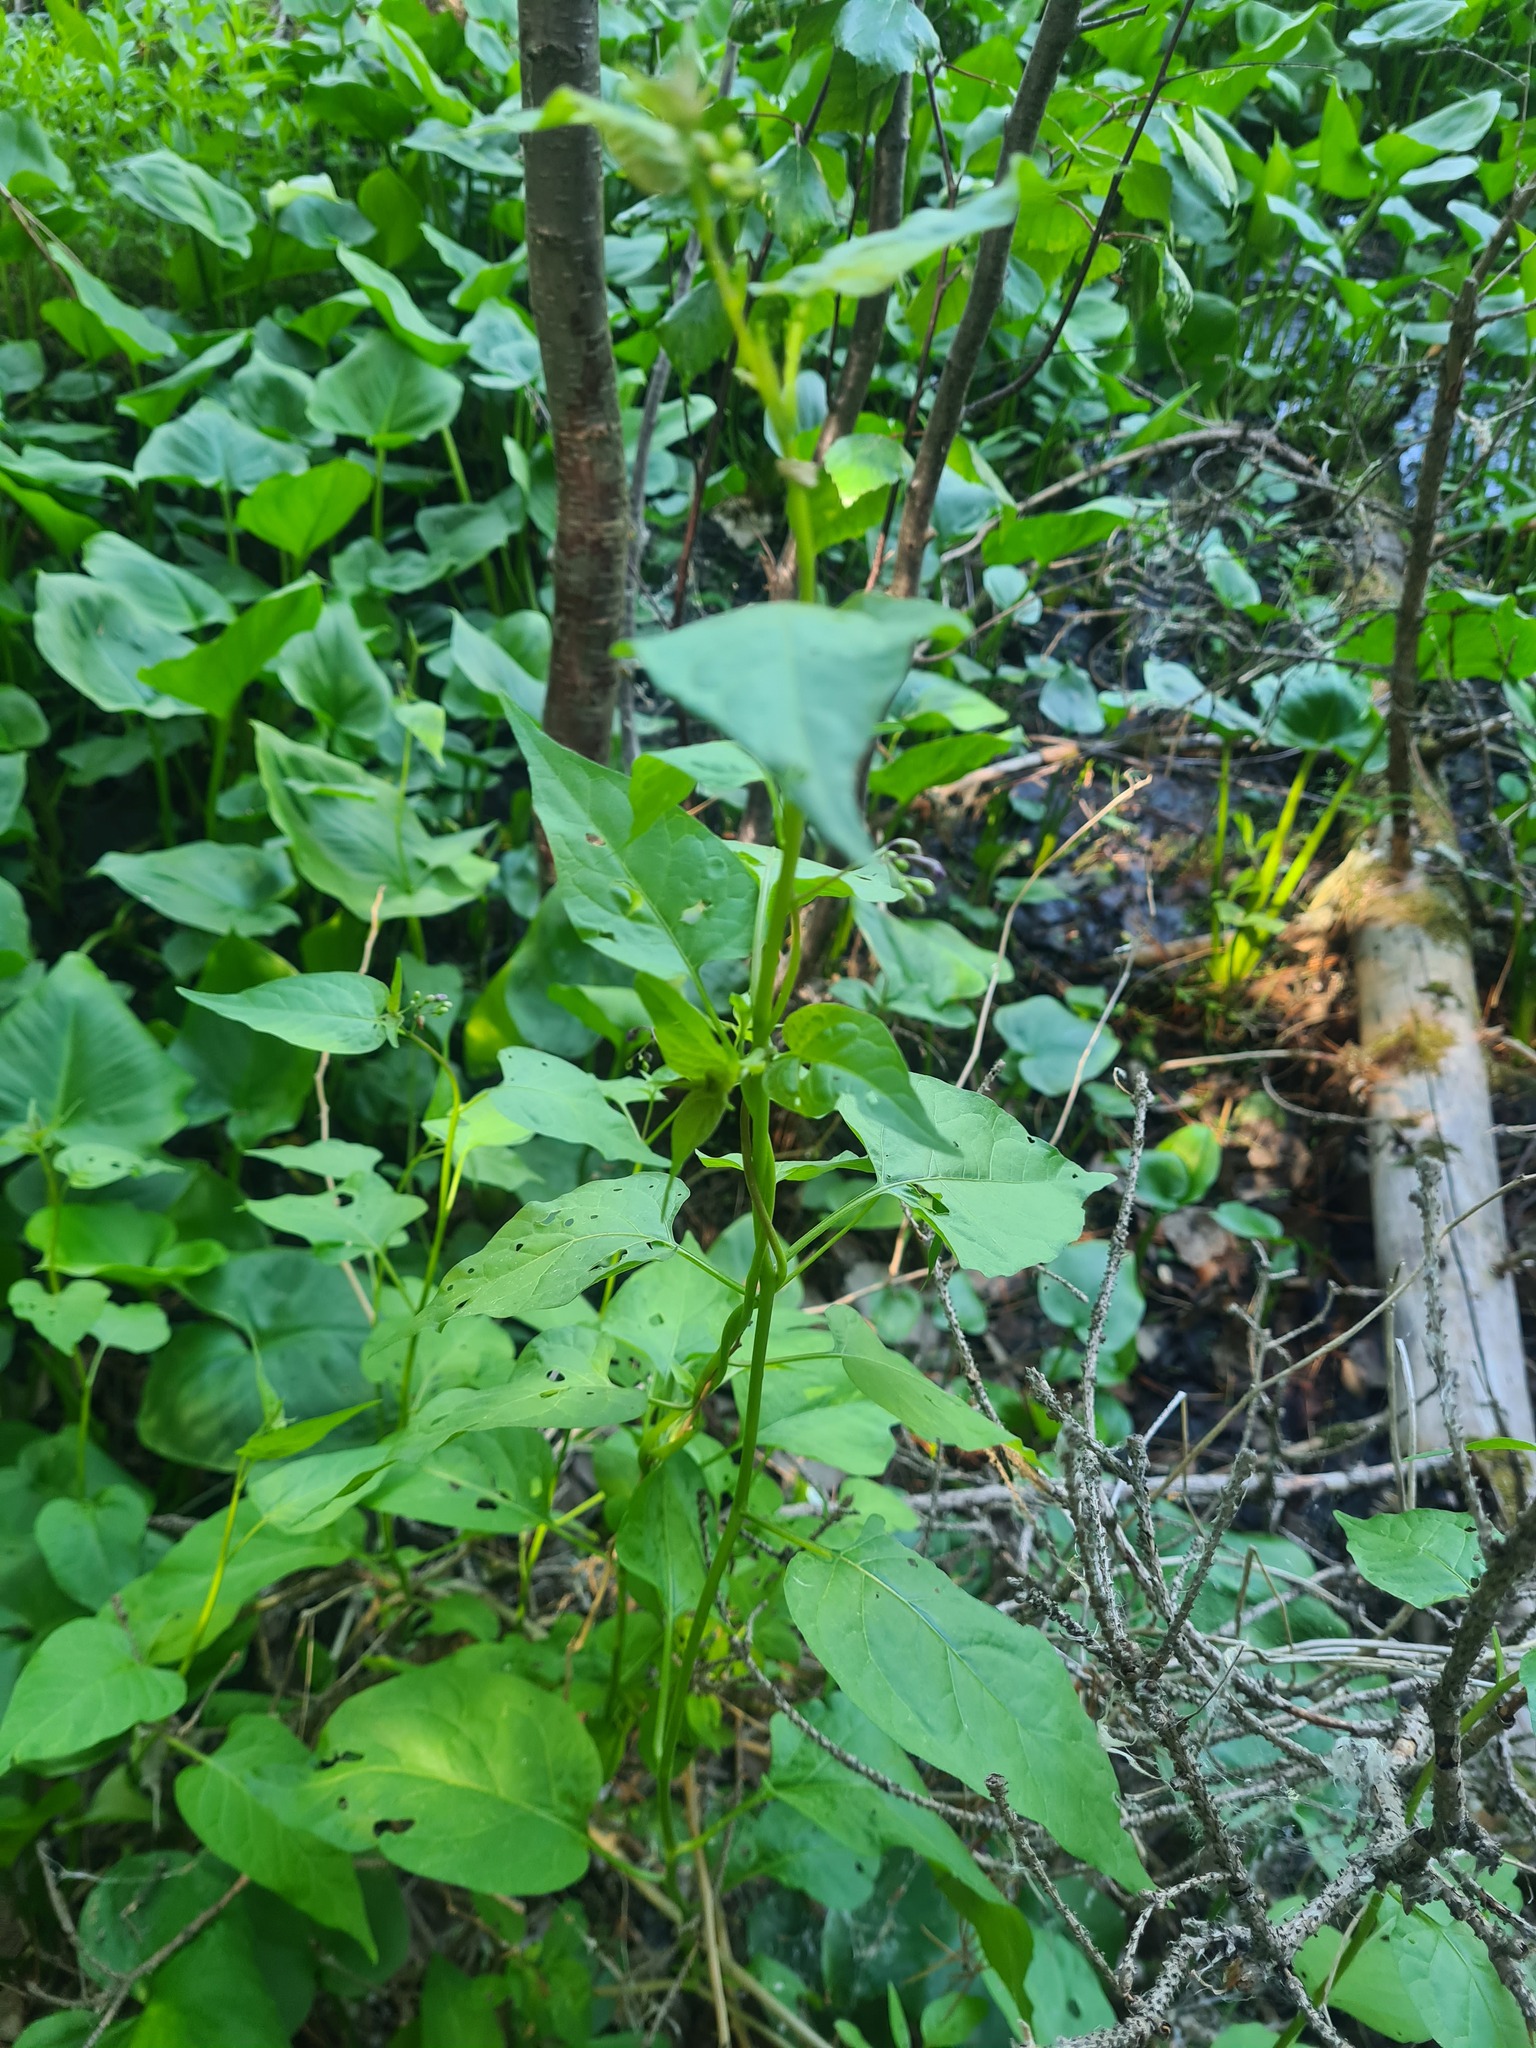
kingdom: Plantae
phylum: Tracheophyta
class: Magnoliopsida
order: Solanales
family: Solanaceae
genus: Solanum
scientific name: Solanum dulcamara
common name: Climbing nightshade
